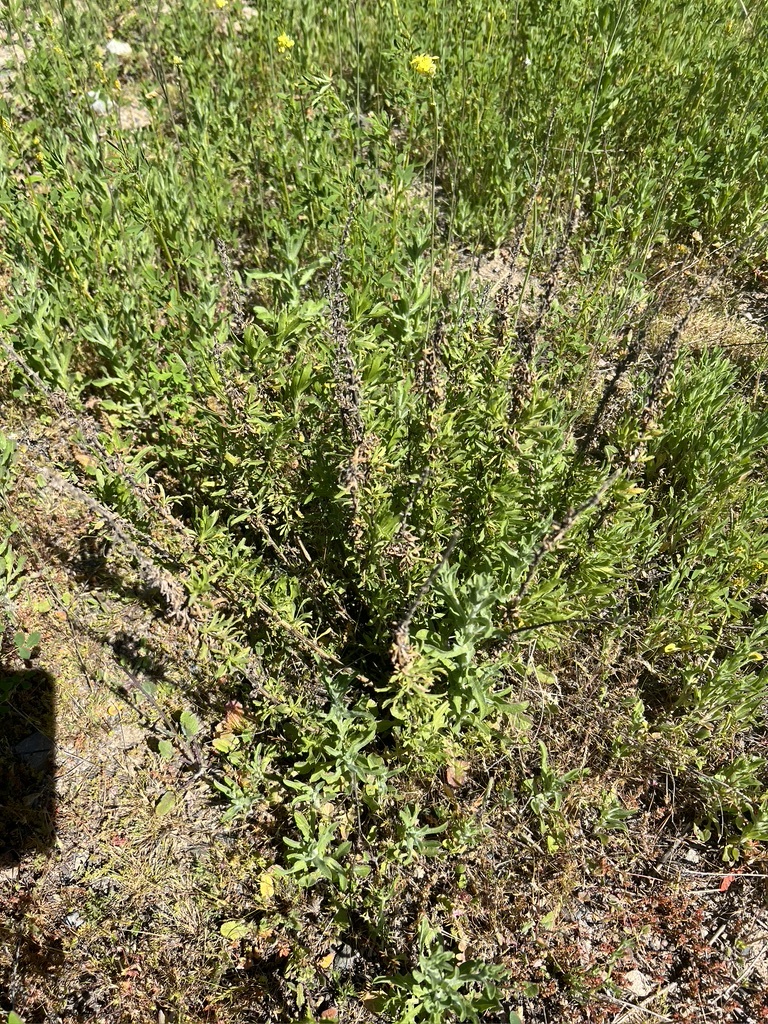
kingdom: Plantae
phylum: Tracheophyta
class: Magnoliopsida
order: Asterales
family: Asteraceae
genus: Isocoma
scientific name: Isocoma menziesii
